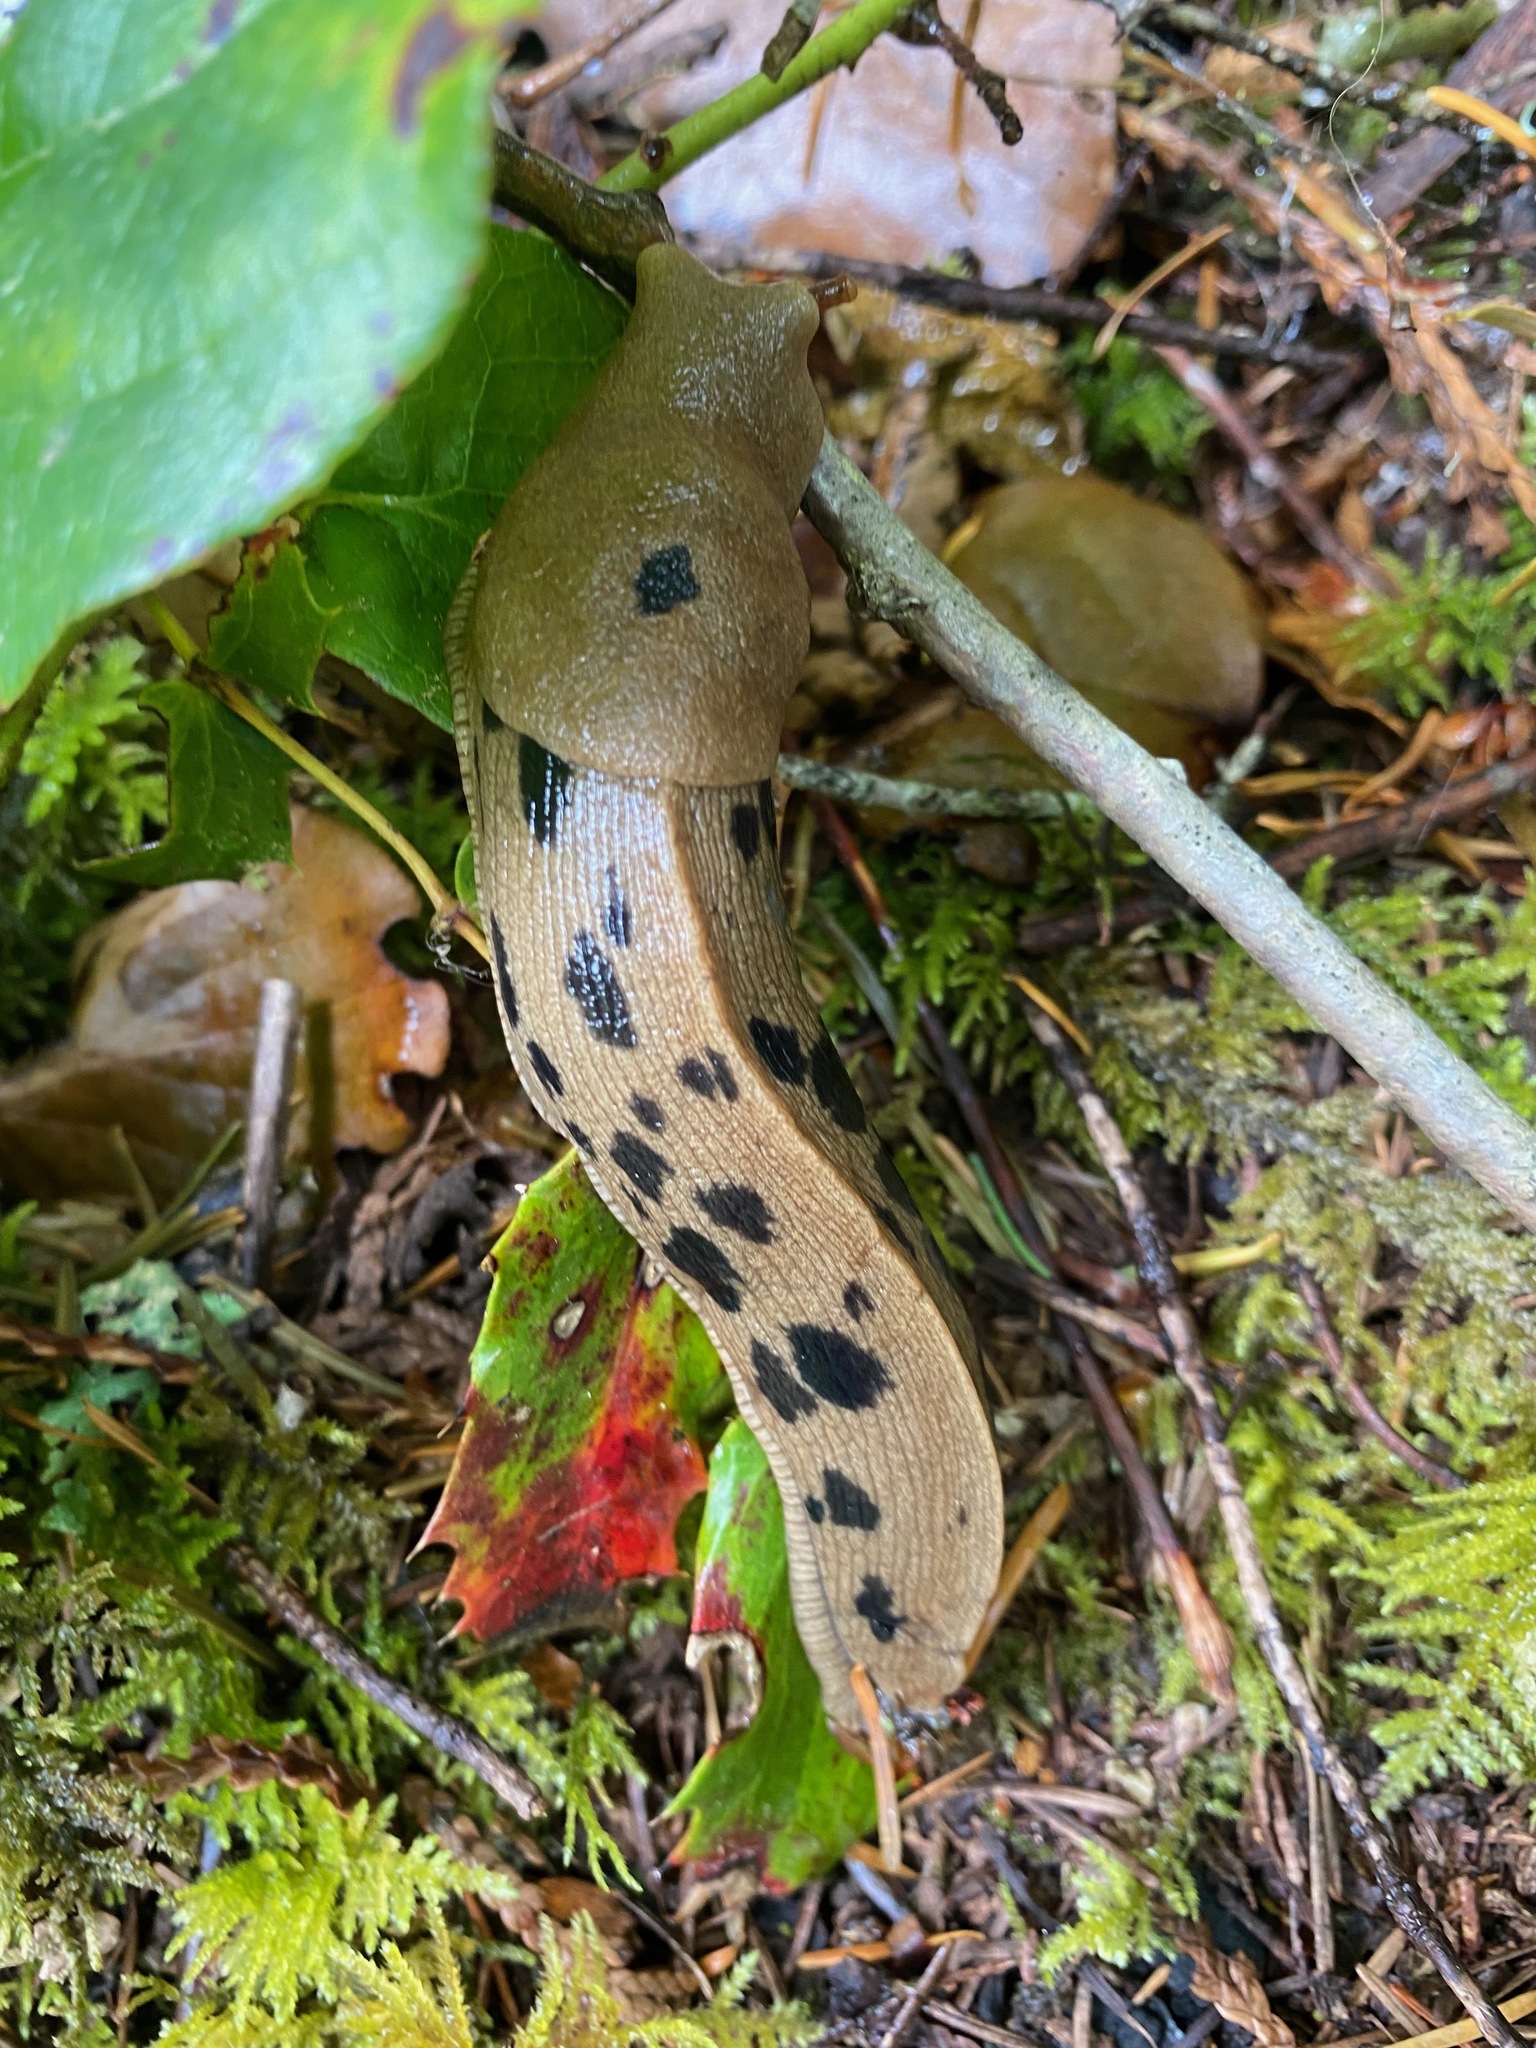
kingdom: Animalia
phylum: Mollusca
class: Gastropoda
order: Stylommatophora
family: Ariolimacidae
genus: Ariolimax
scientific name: Ariolimax columbianus
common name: Pacific banana slug
